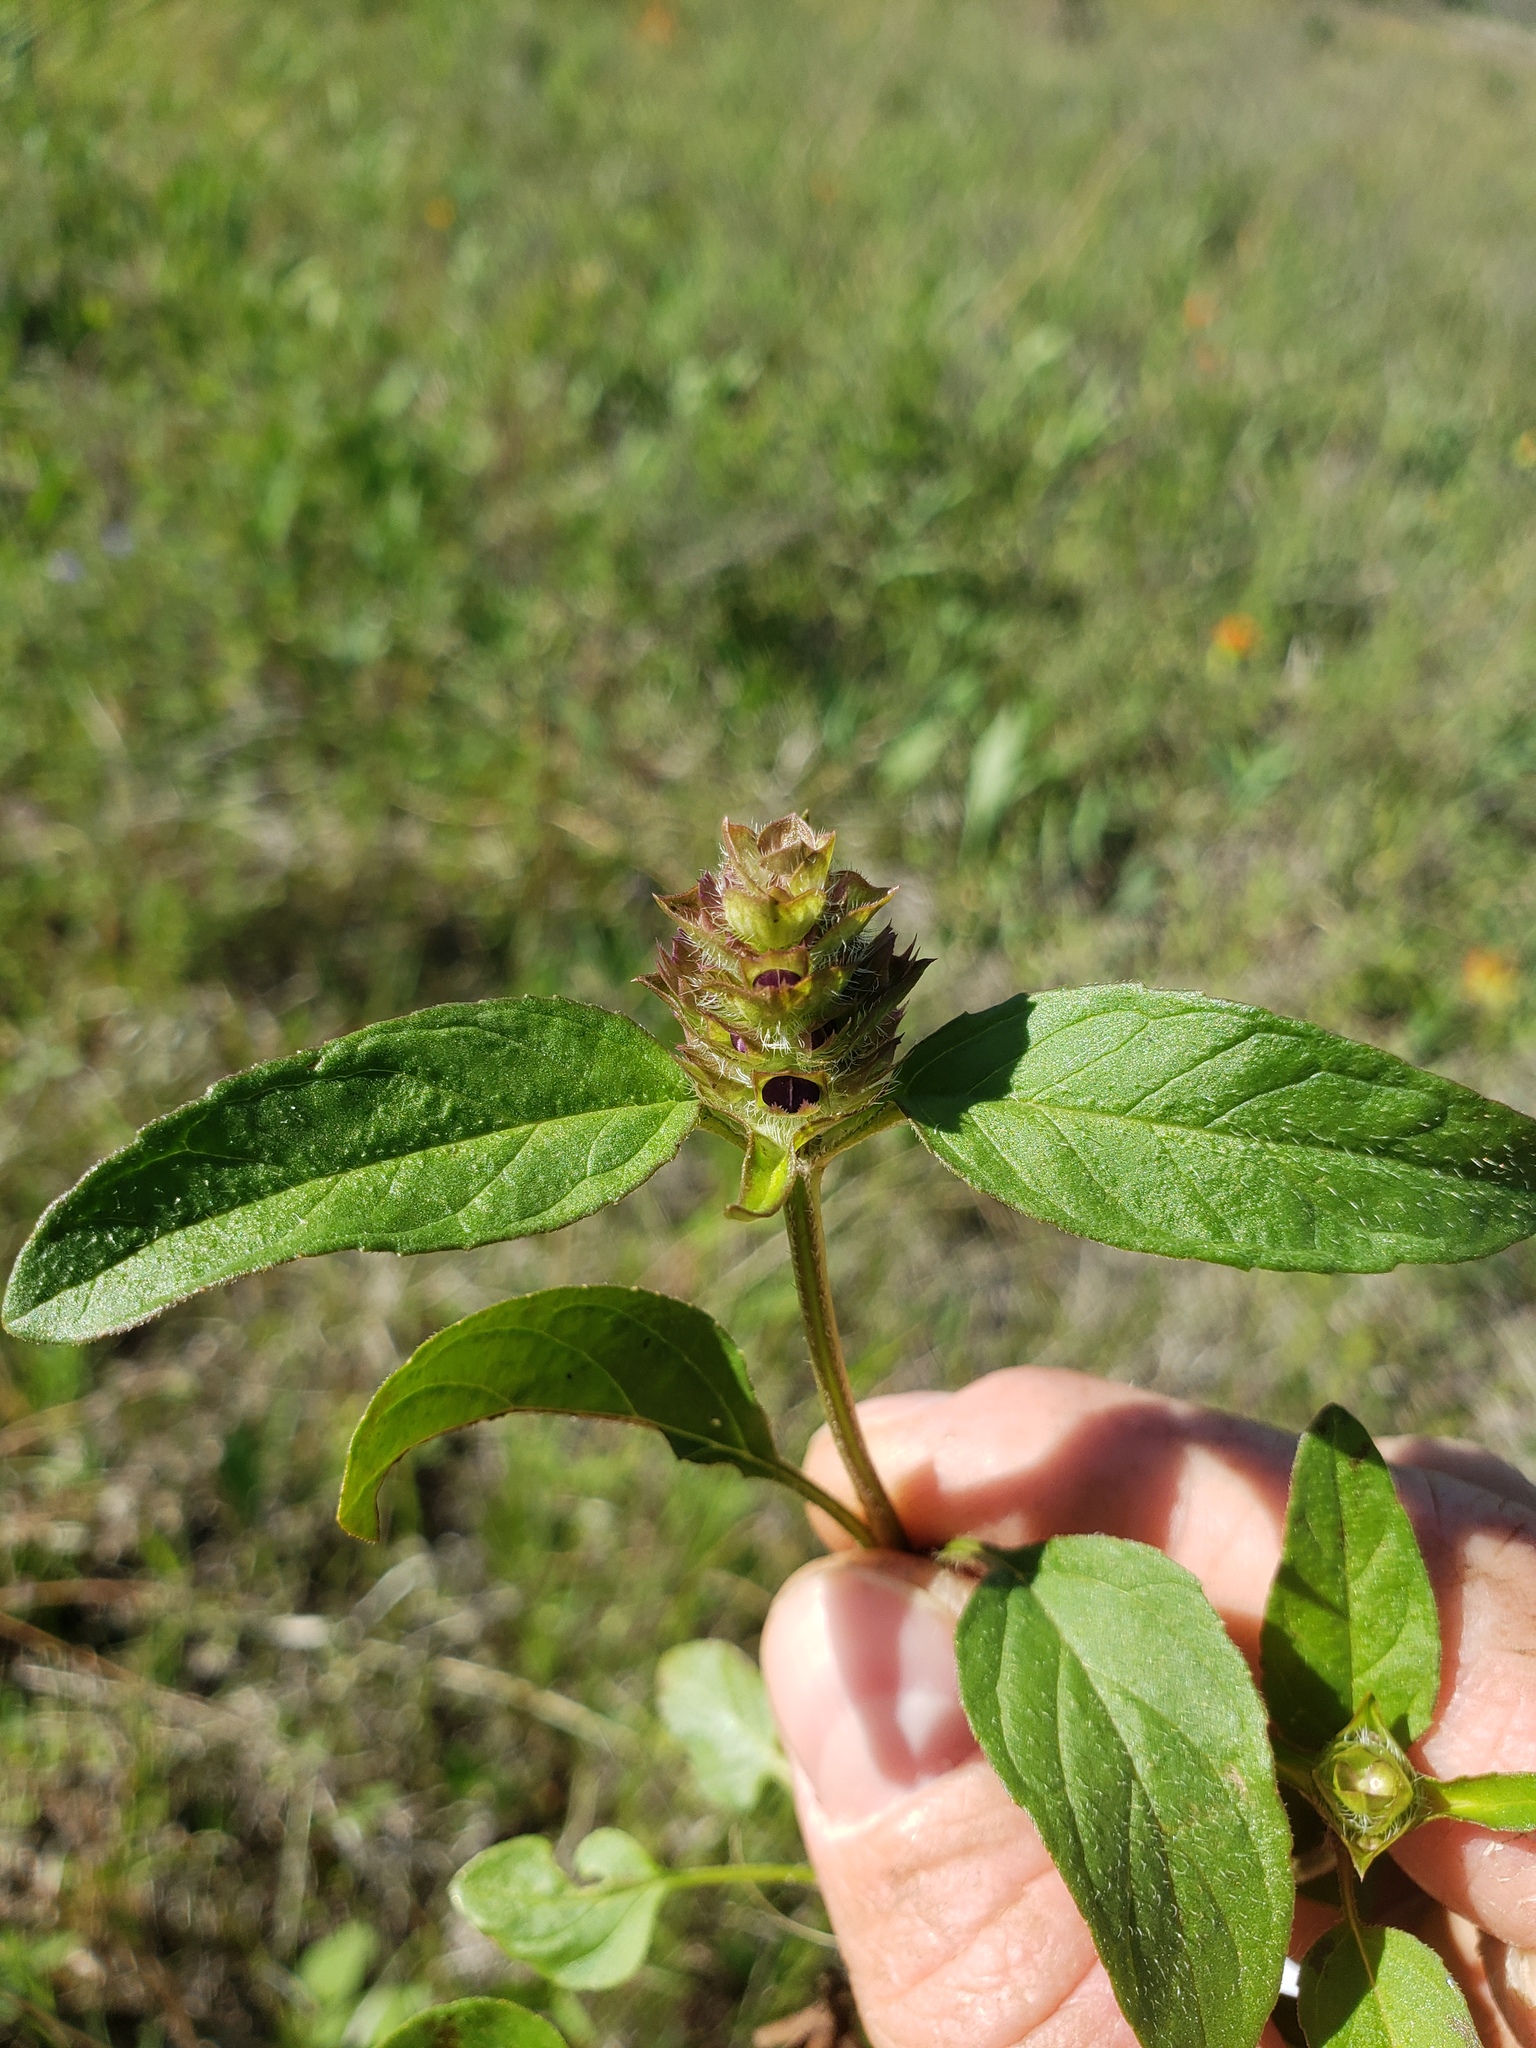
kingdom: Plantae
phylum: Tracheophyta
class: Magnoliopsida
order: Lamiales
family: Lamiaceae
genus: Prunella
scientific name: Prunella vulgaris
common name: Heal-all
